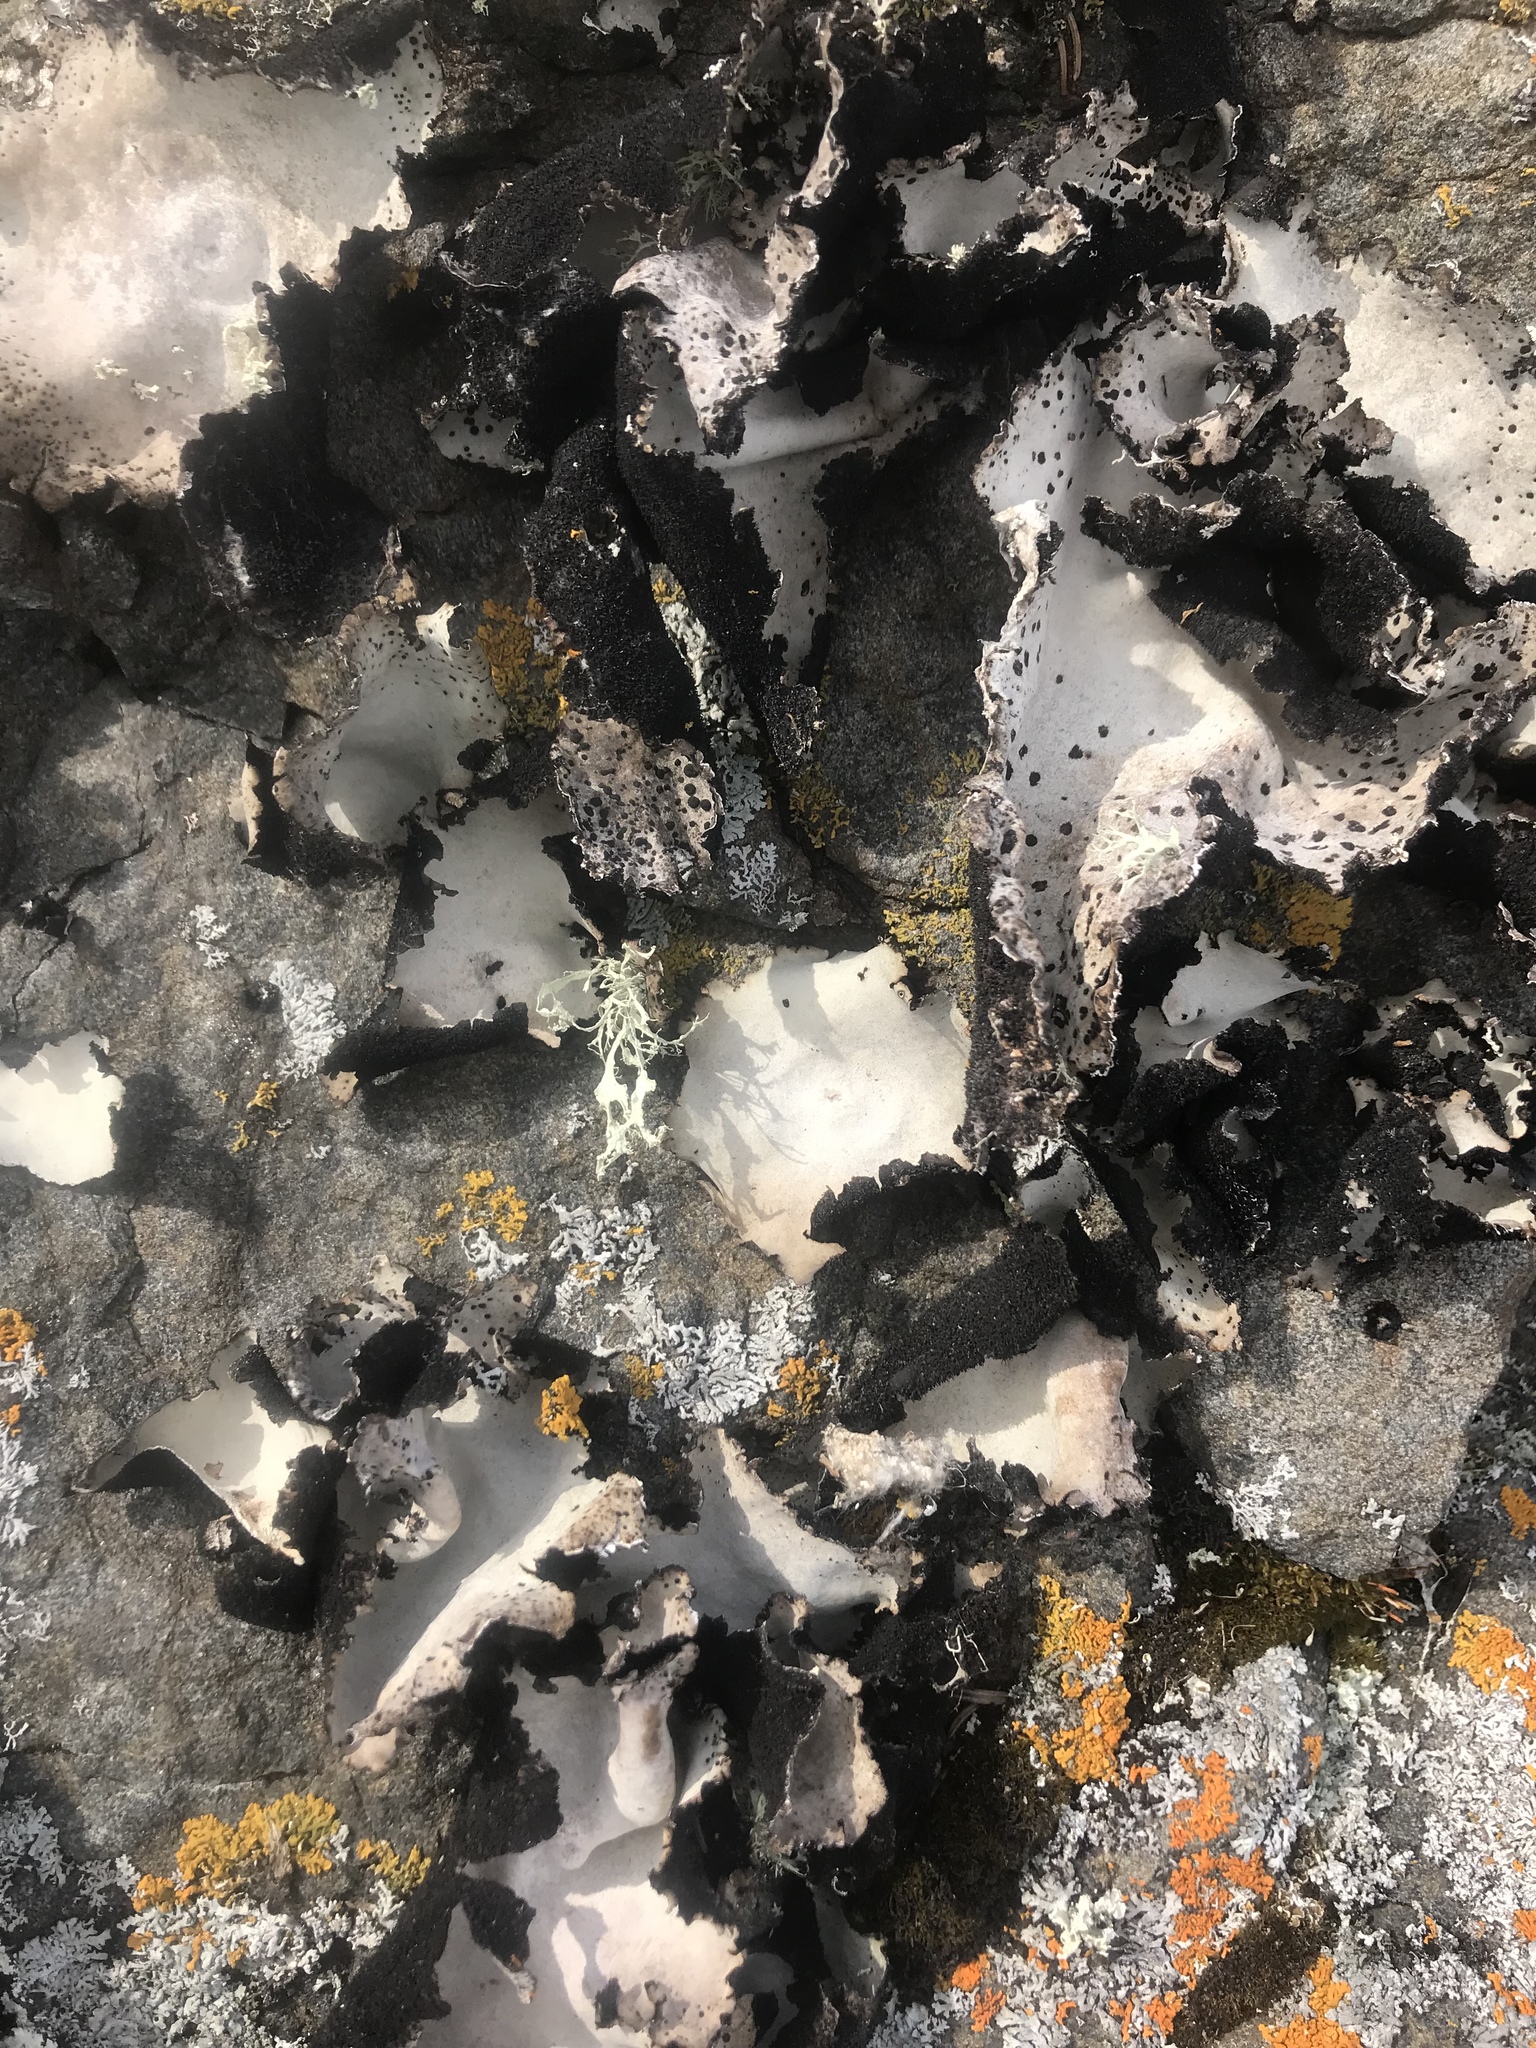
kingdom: Fungi
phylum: Ascomycota
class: Lecanoromycetes
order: Umbilicariales
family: Umbilicariaceae
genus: Umbilicaria
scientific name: Umbilicaria americana
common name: Frosted rock tripe
